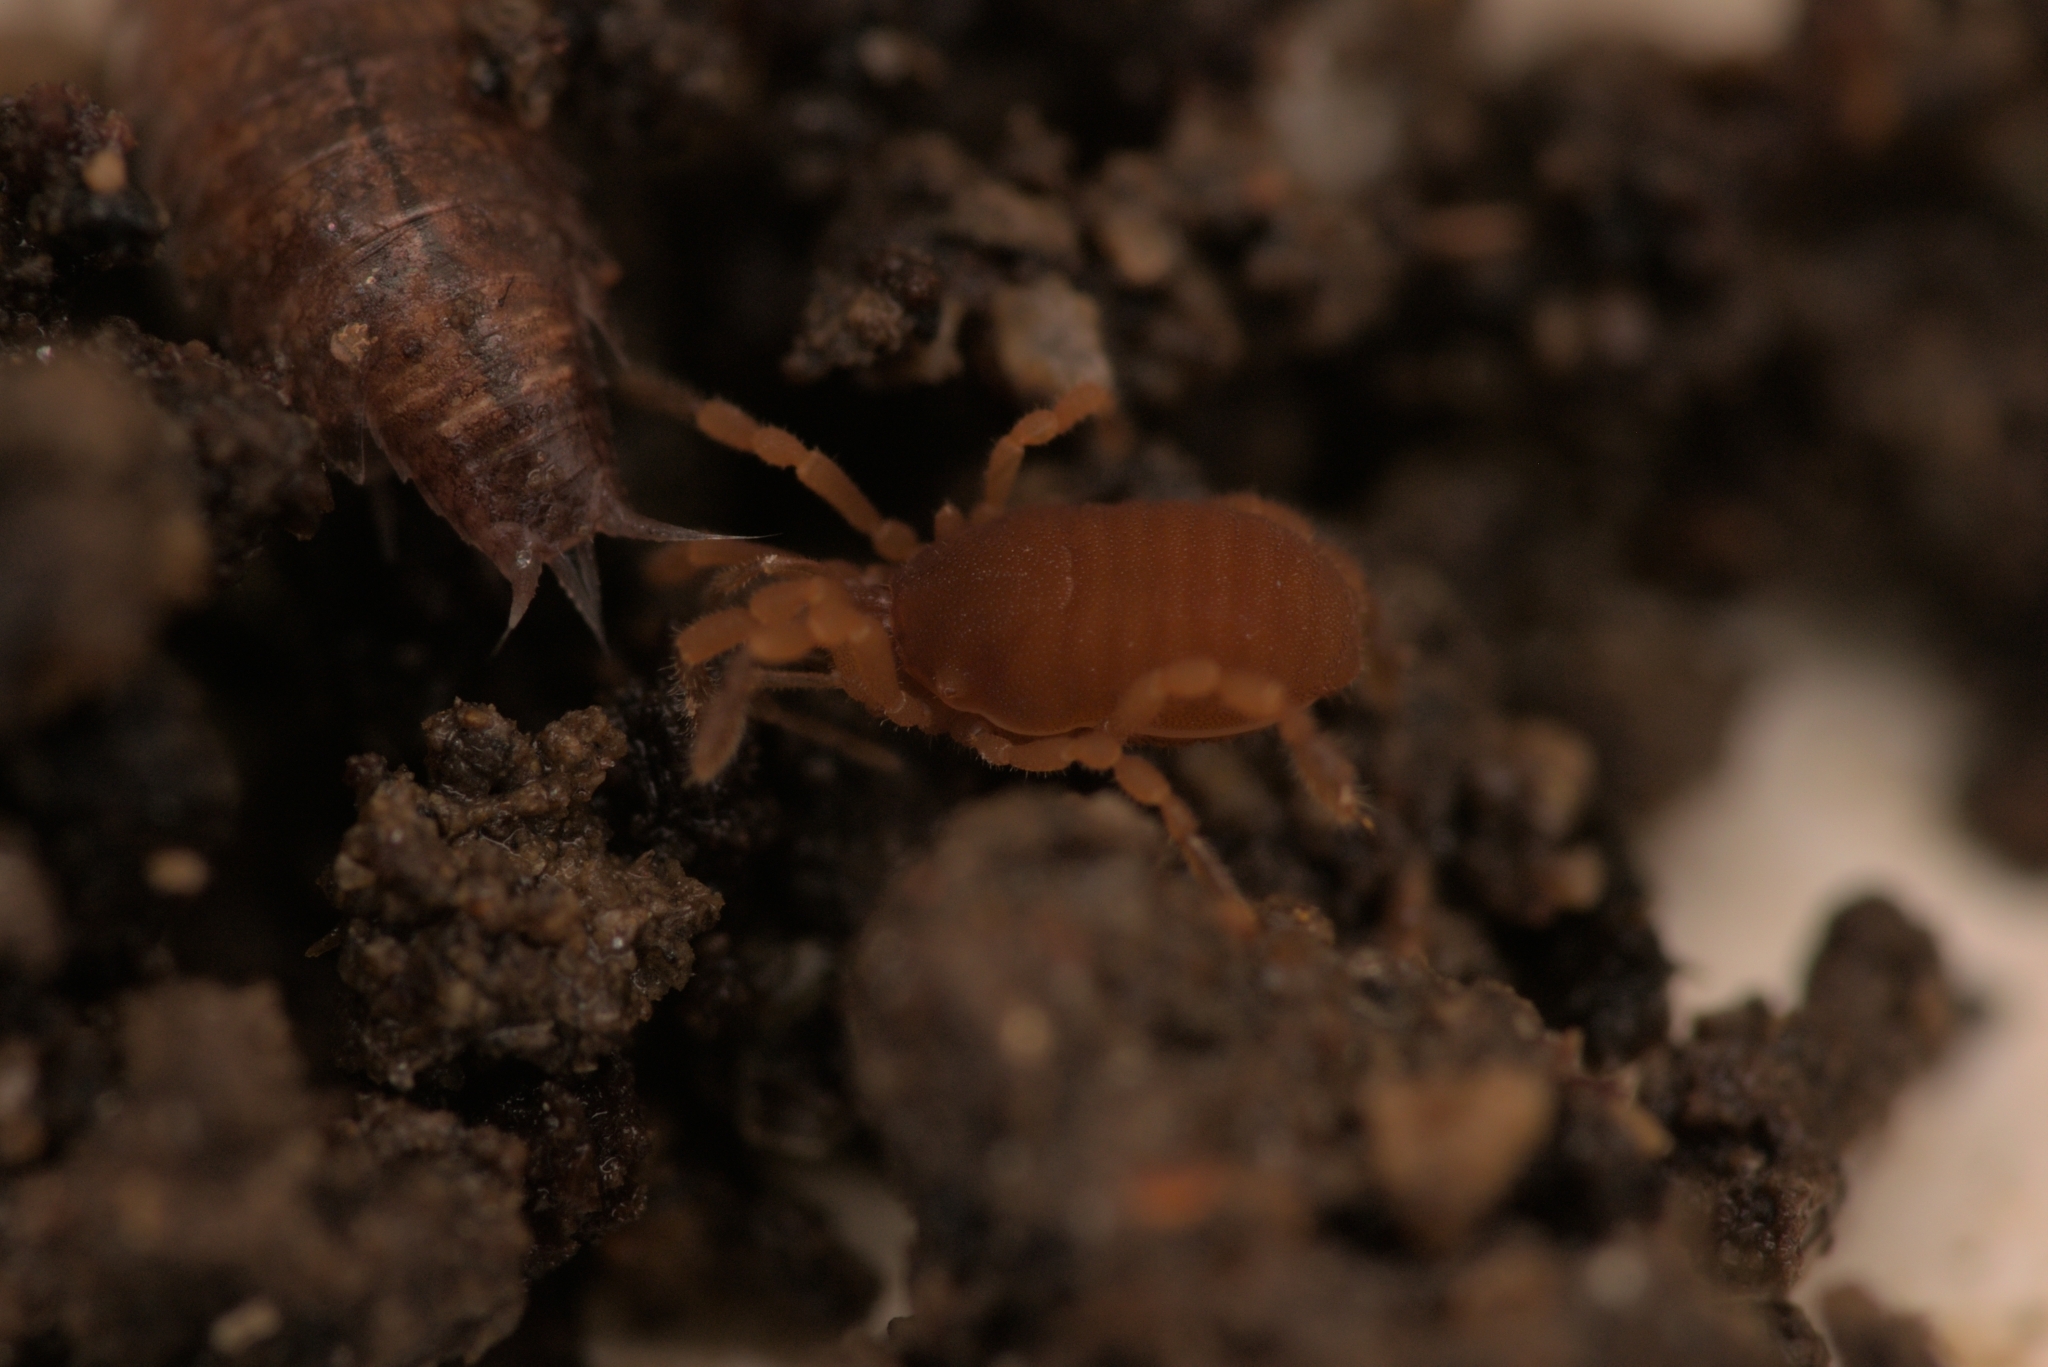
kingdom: Animalia
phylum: Arthropoda
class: Arachnida
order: Opiliones
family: Sironidae
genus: Siro
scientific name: Siro rubens
